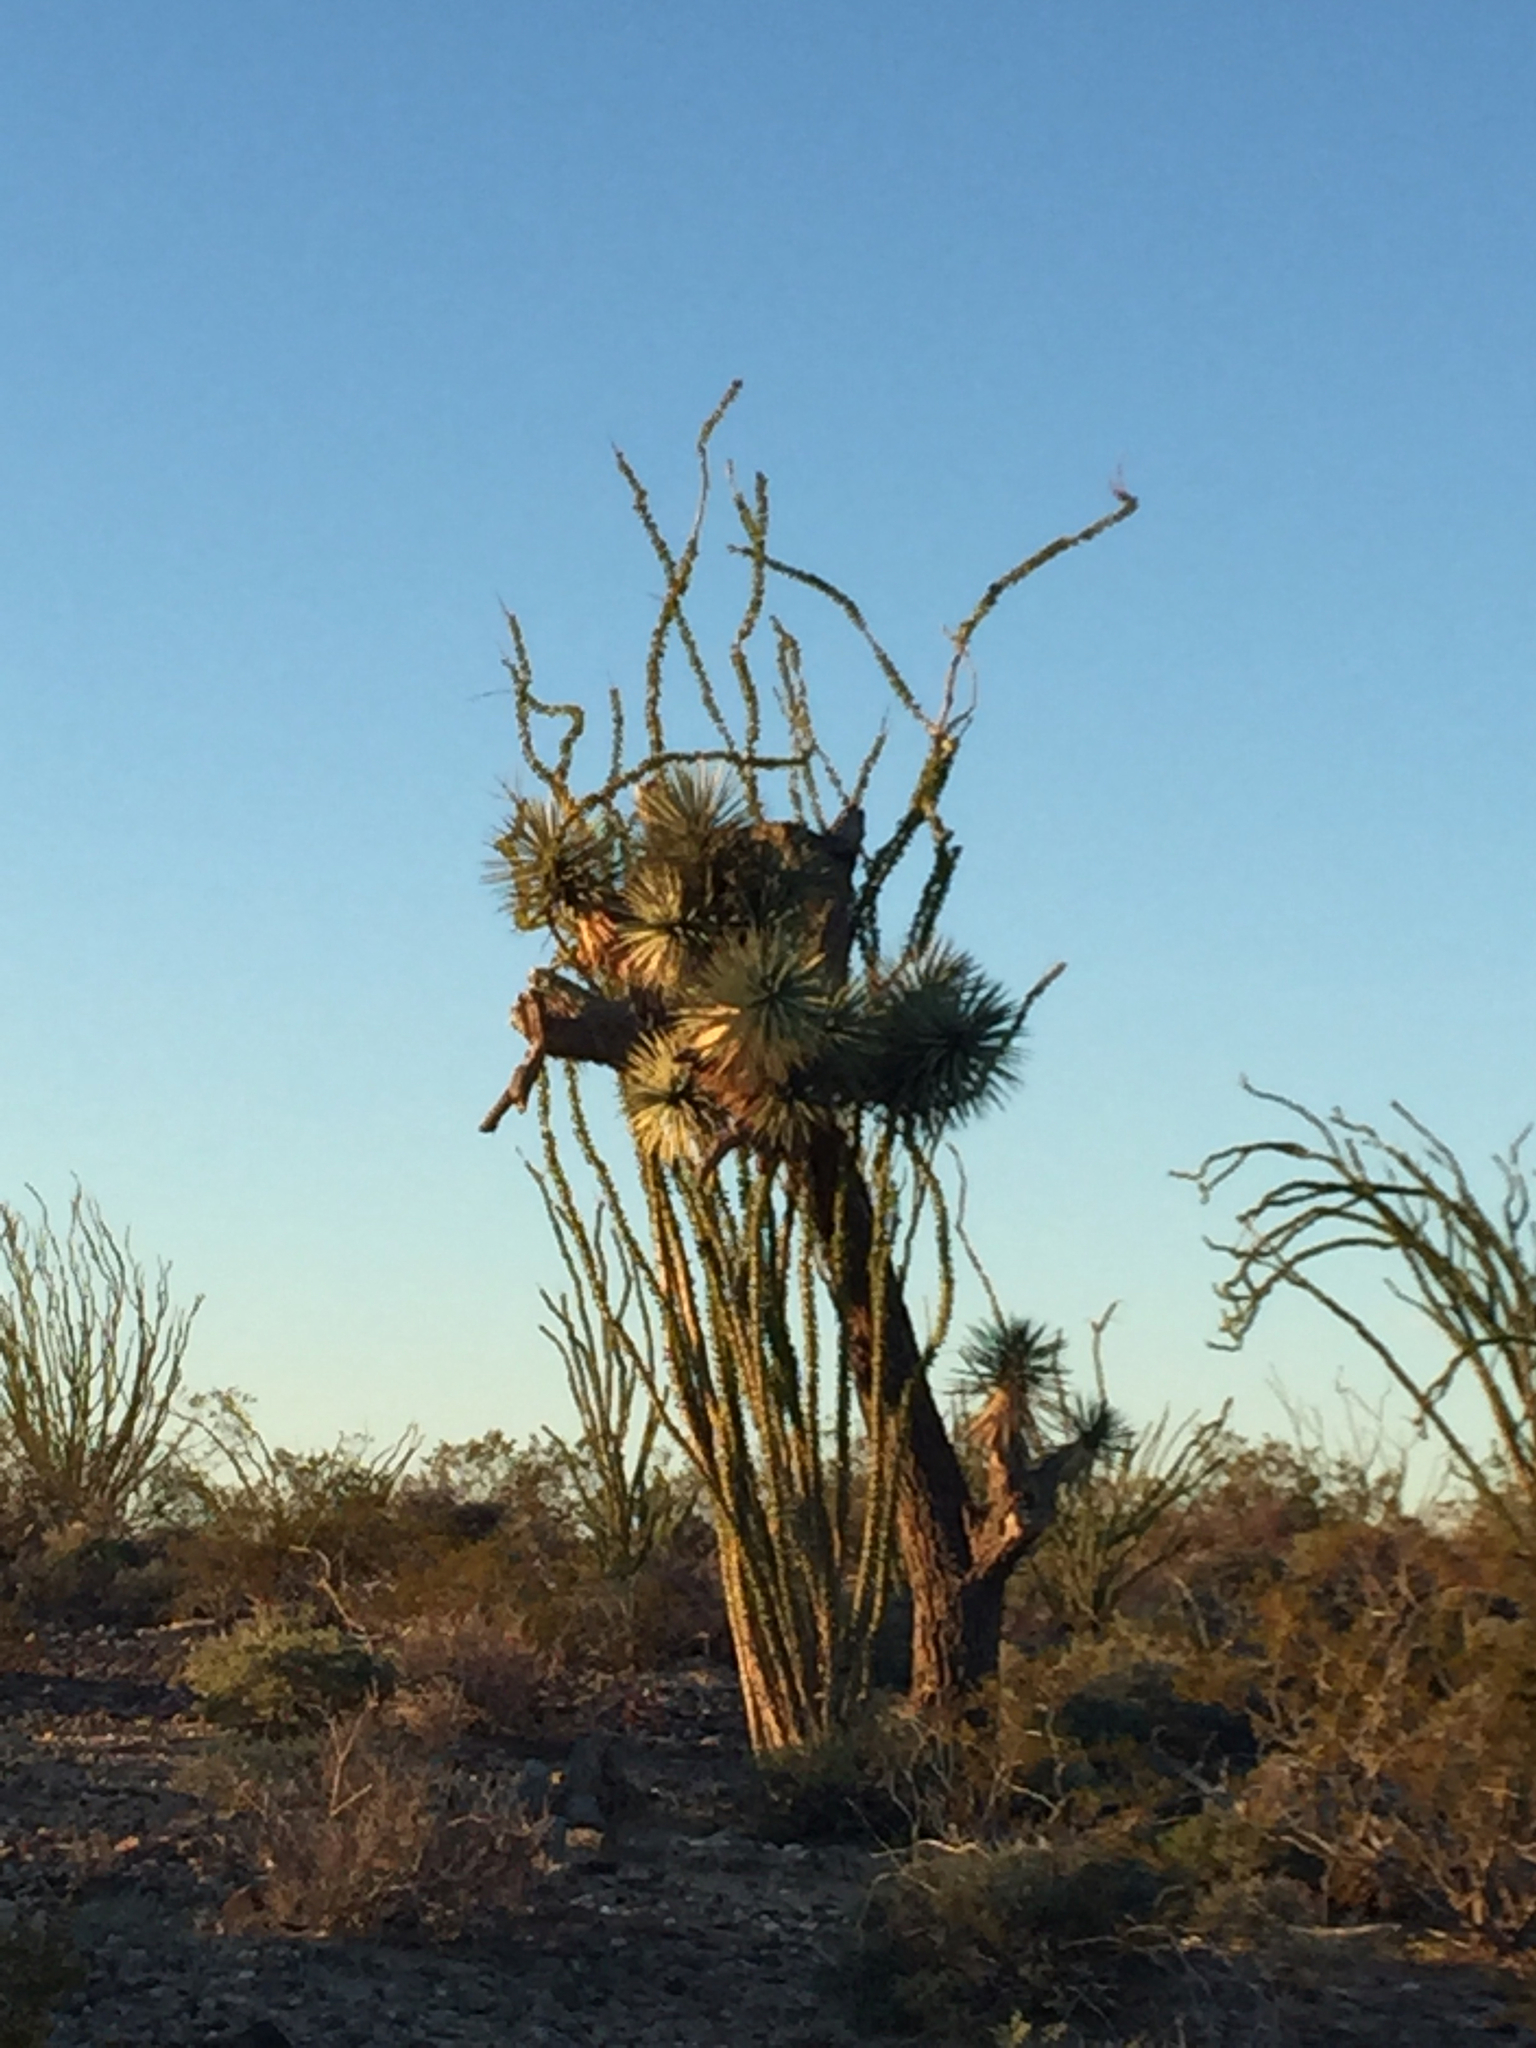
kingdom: Plantae
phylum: Tracheophyta
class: Magnoliopsida
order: Ericales
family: Fouquieriaceae
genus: Fouquieria
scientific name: Fouquieria splendens
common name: Vine-cactus
